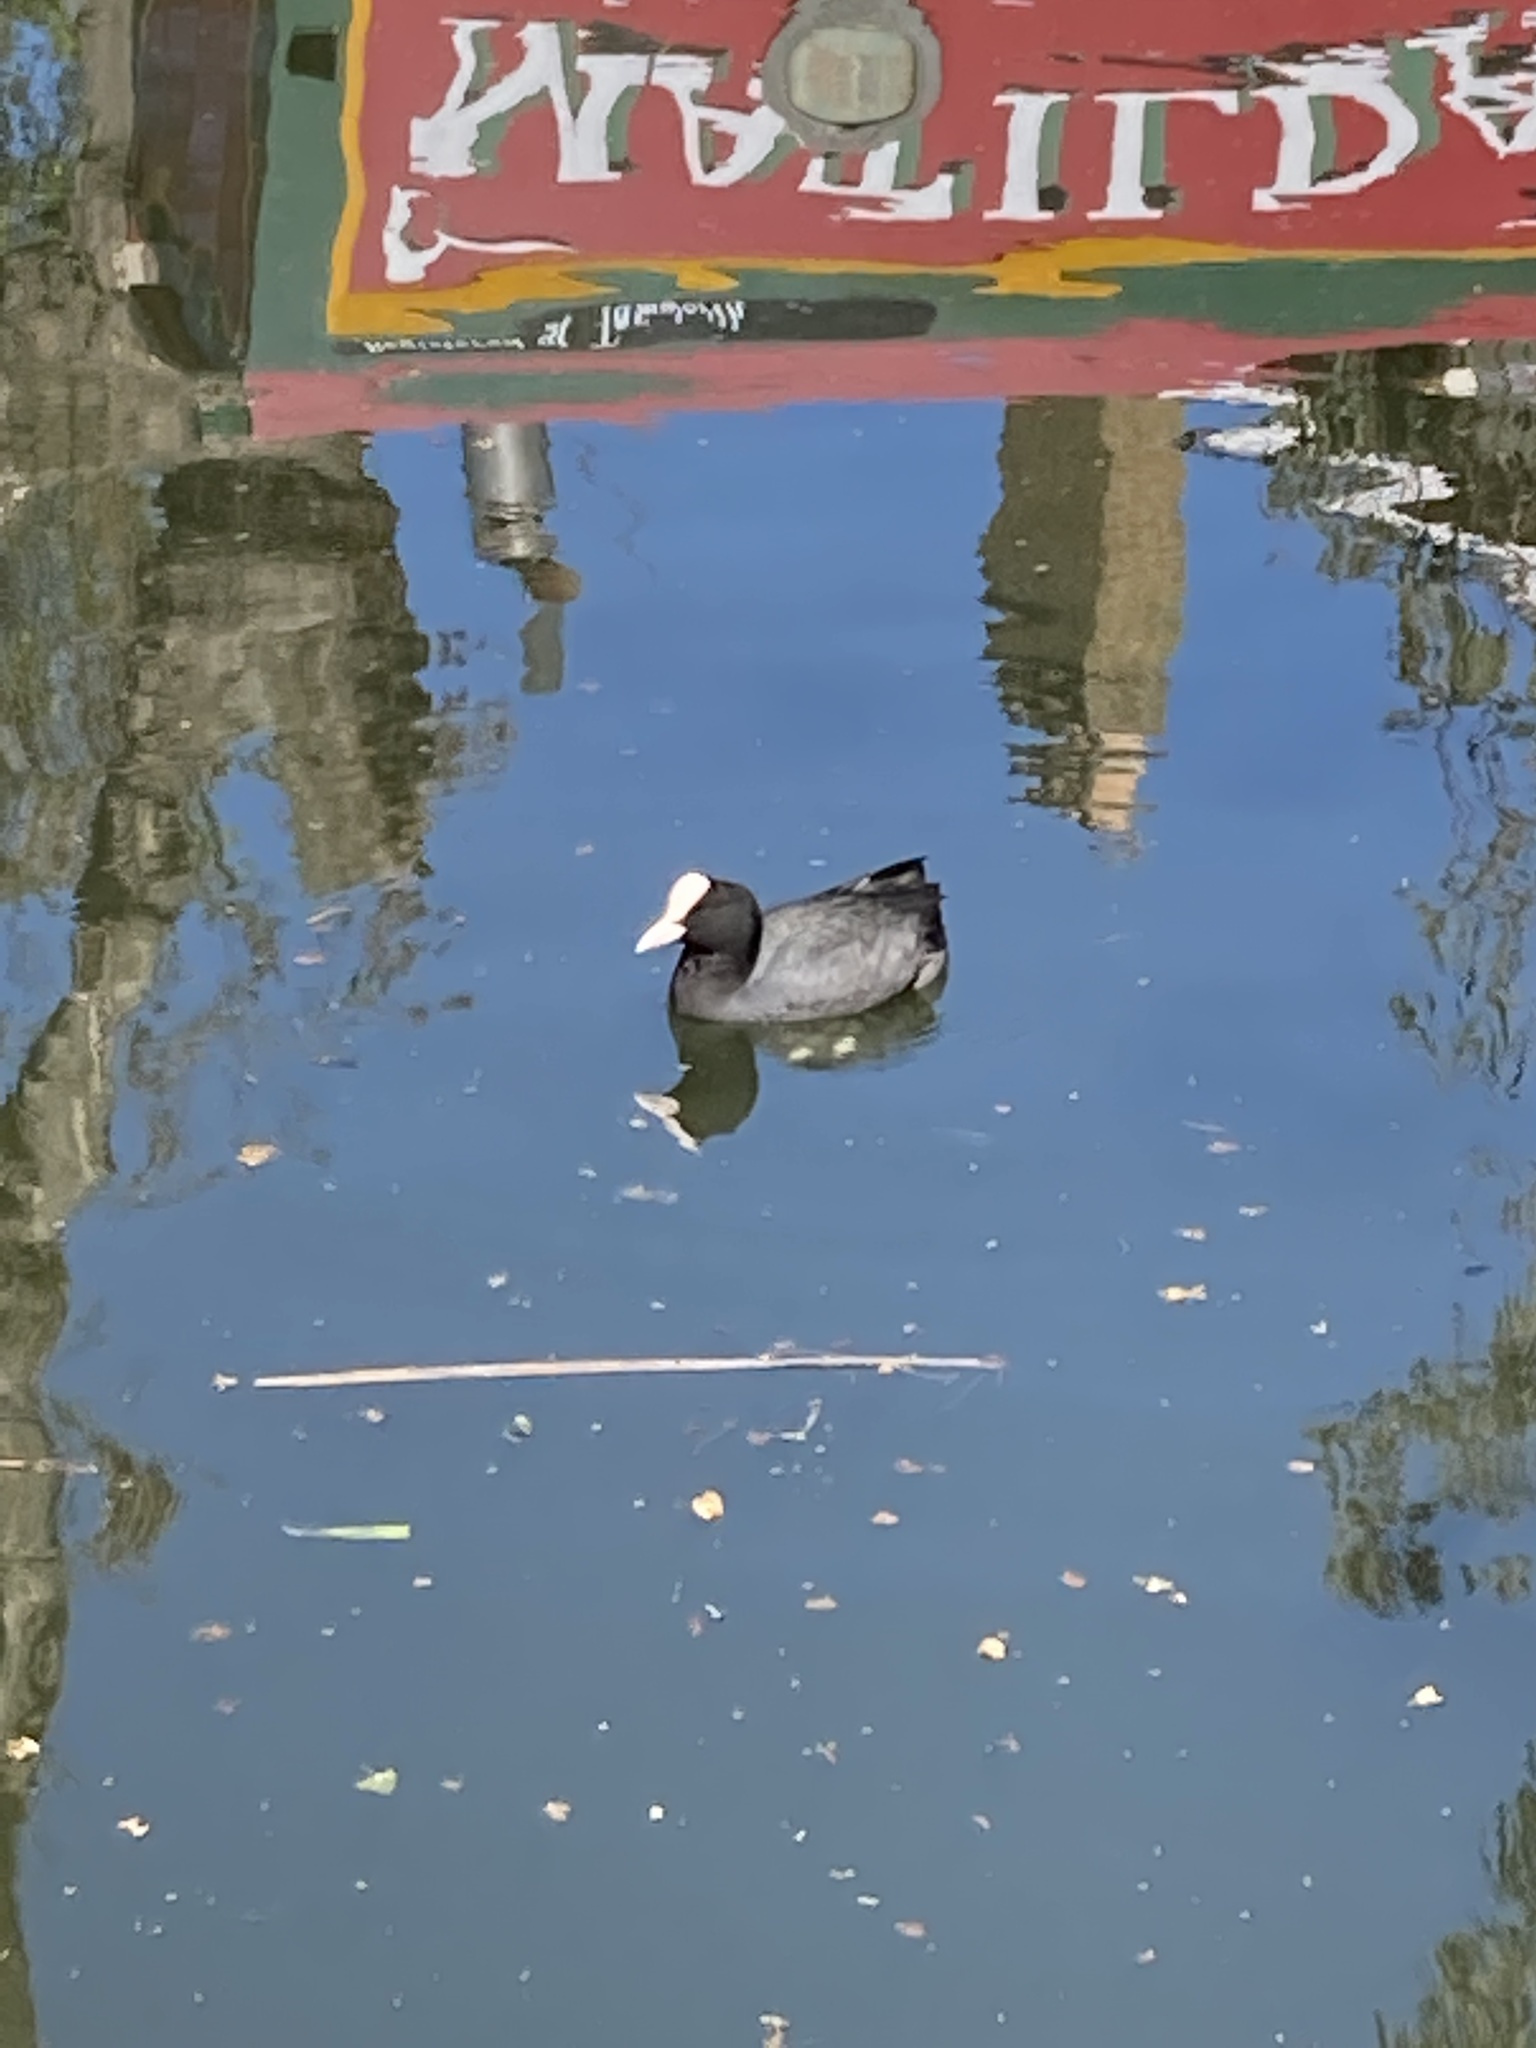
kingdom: Animalia
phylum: Chordata
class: Aves
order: Gruiformes
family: Rallidae
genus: Fulica
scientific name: Fulica atra
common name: Eurasian coot
